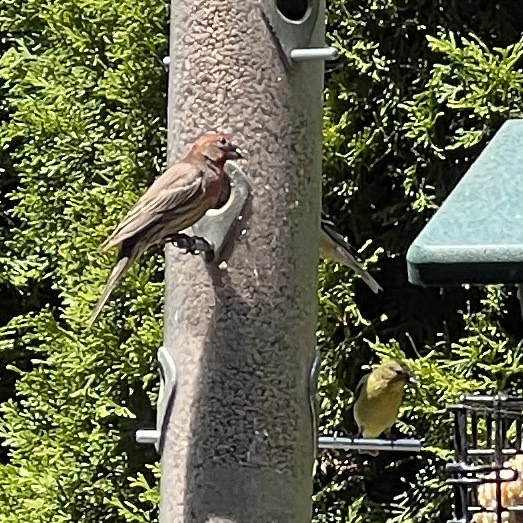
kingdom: Animalia
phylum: Chordata
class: Aves
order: Passeriformes
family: Fringillidae
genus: Haemorhous
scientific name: Haemorhous mexicanus
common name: House finch
